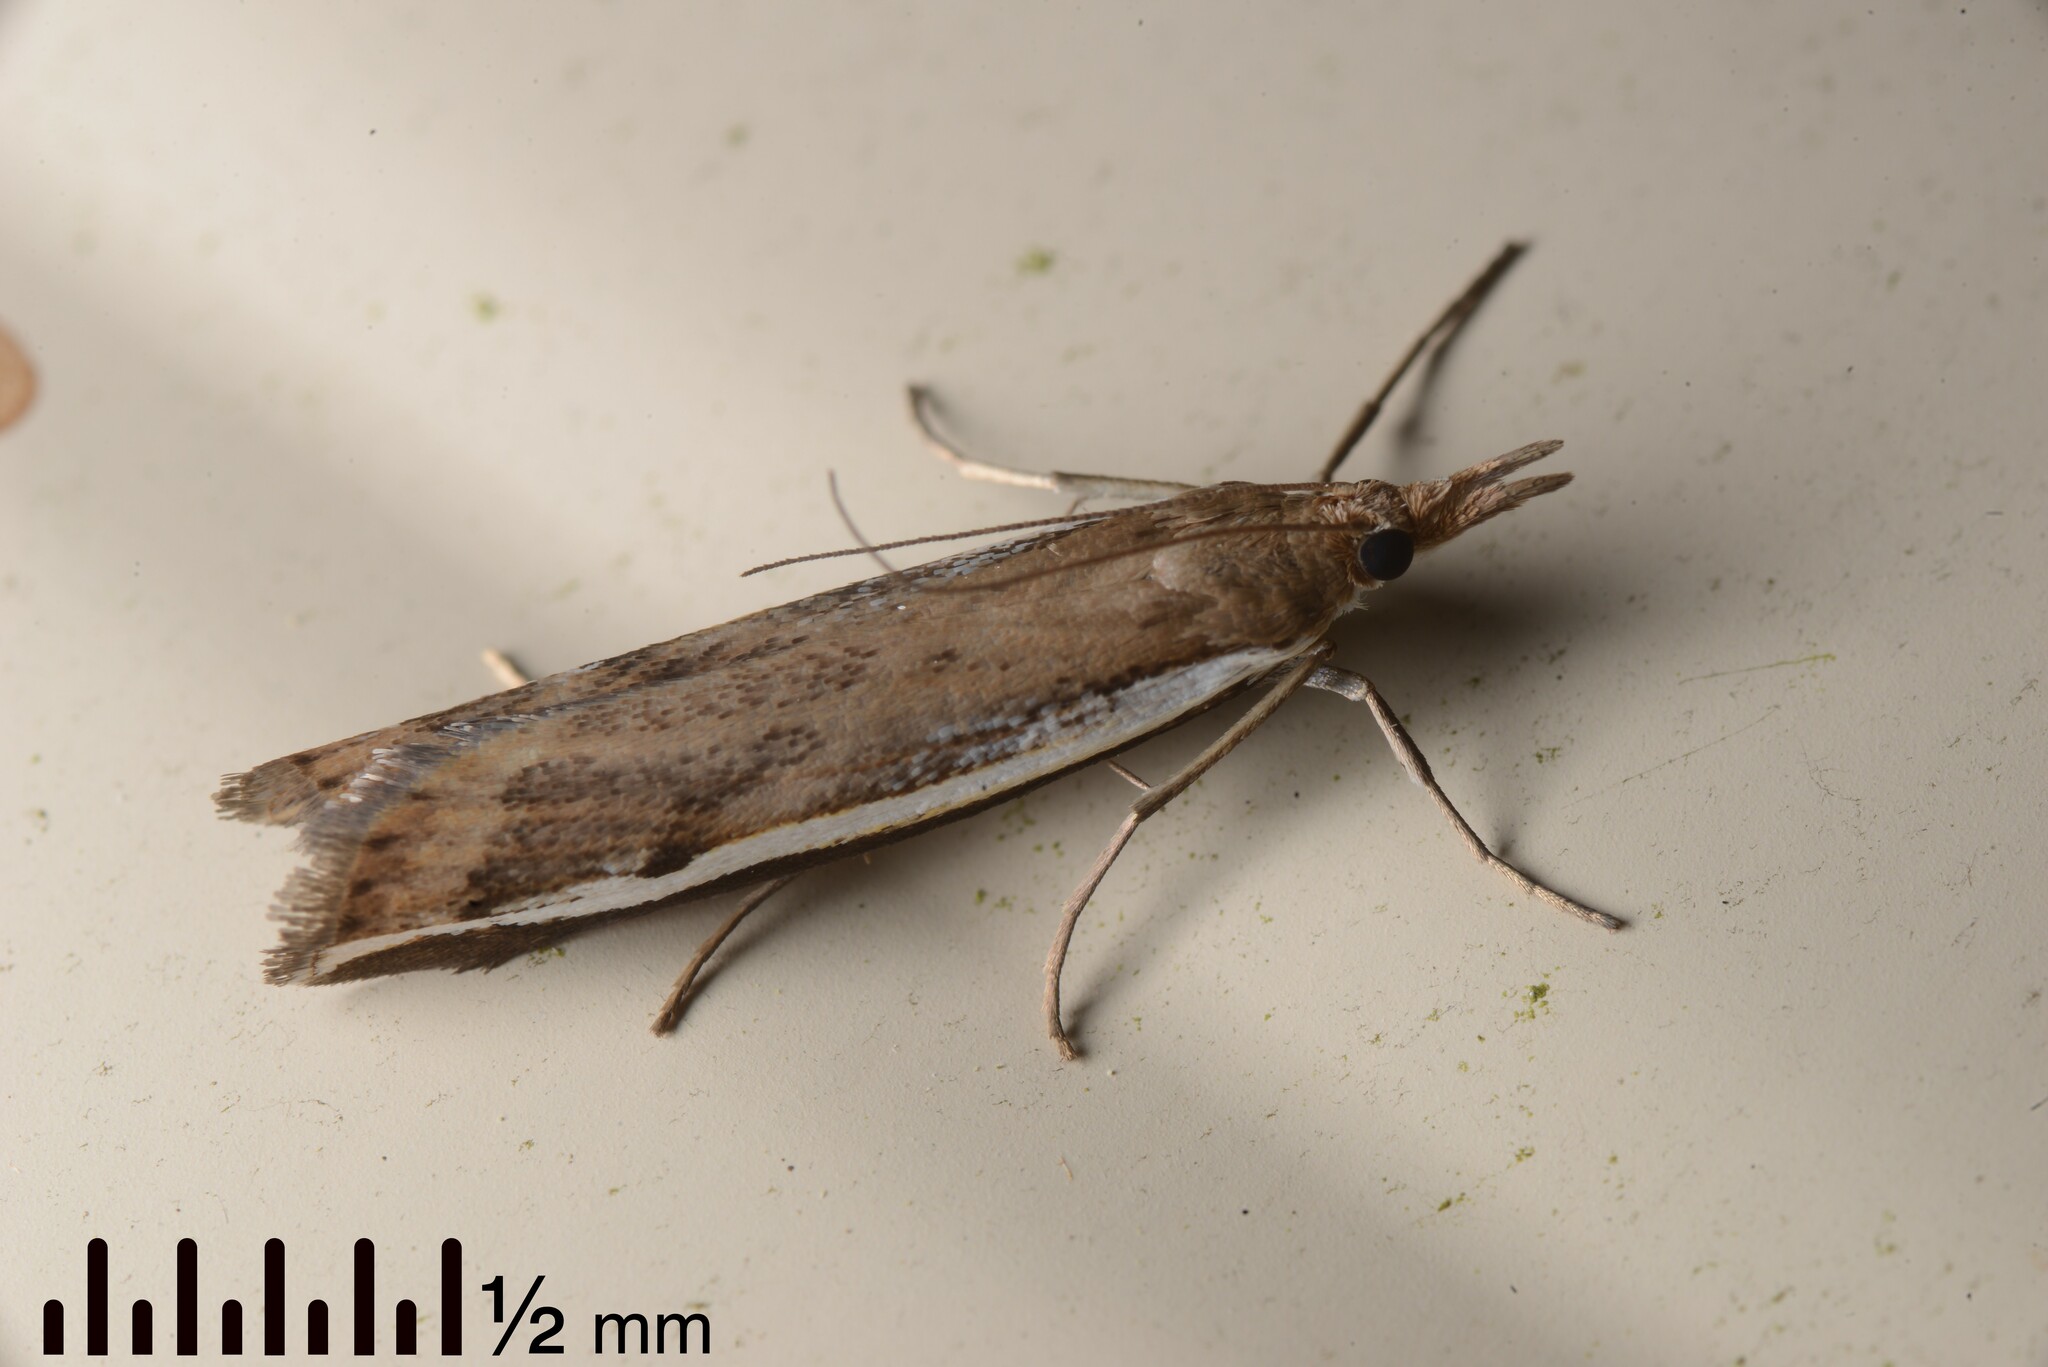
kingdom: Animalia
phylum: Arthropoda
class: Insecta
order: Lepidoptera
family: Crambidae
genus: Orocrambus
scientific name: Orocrambus flexuosellus
